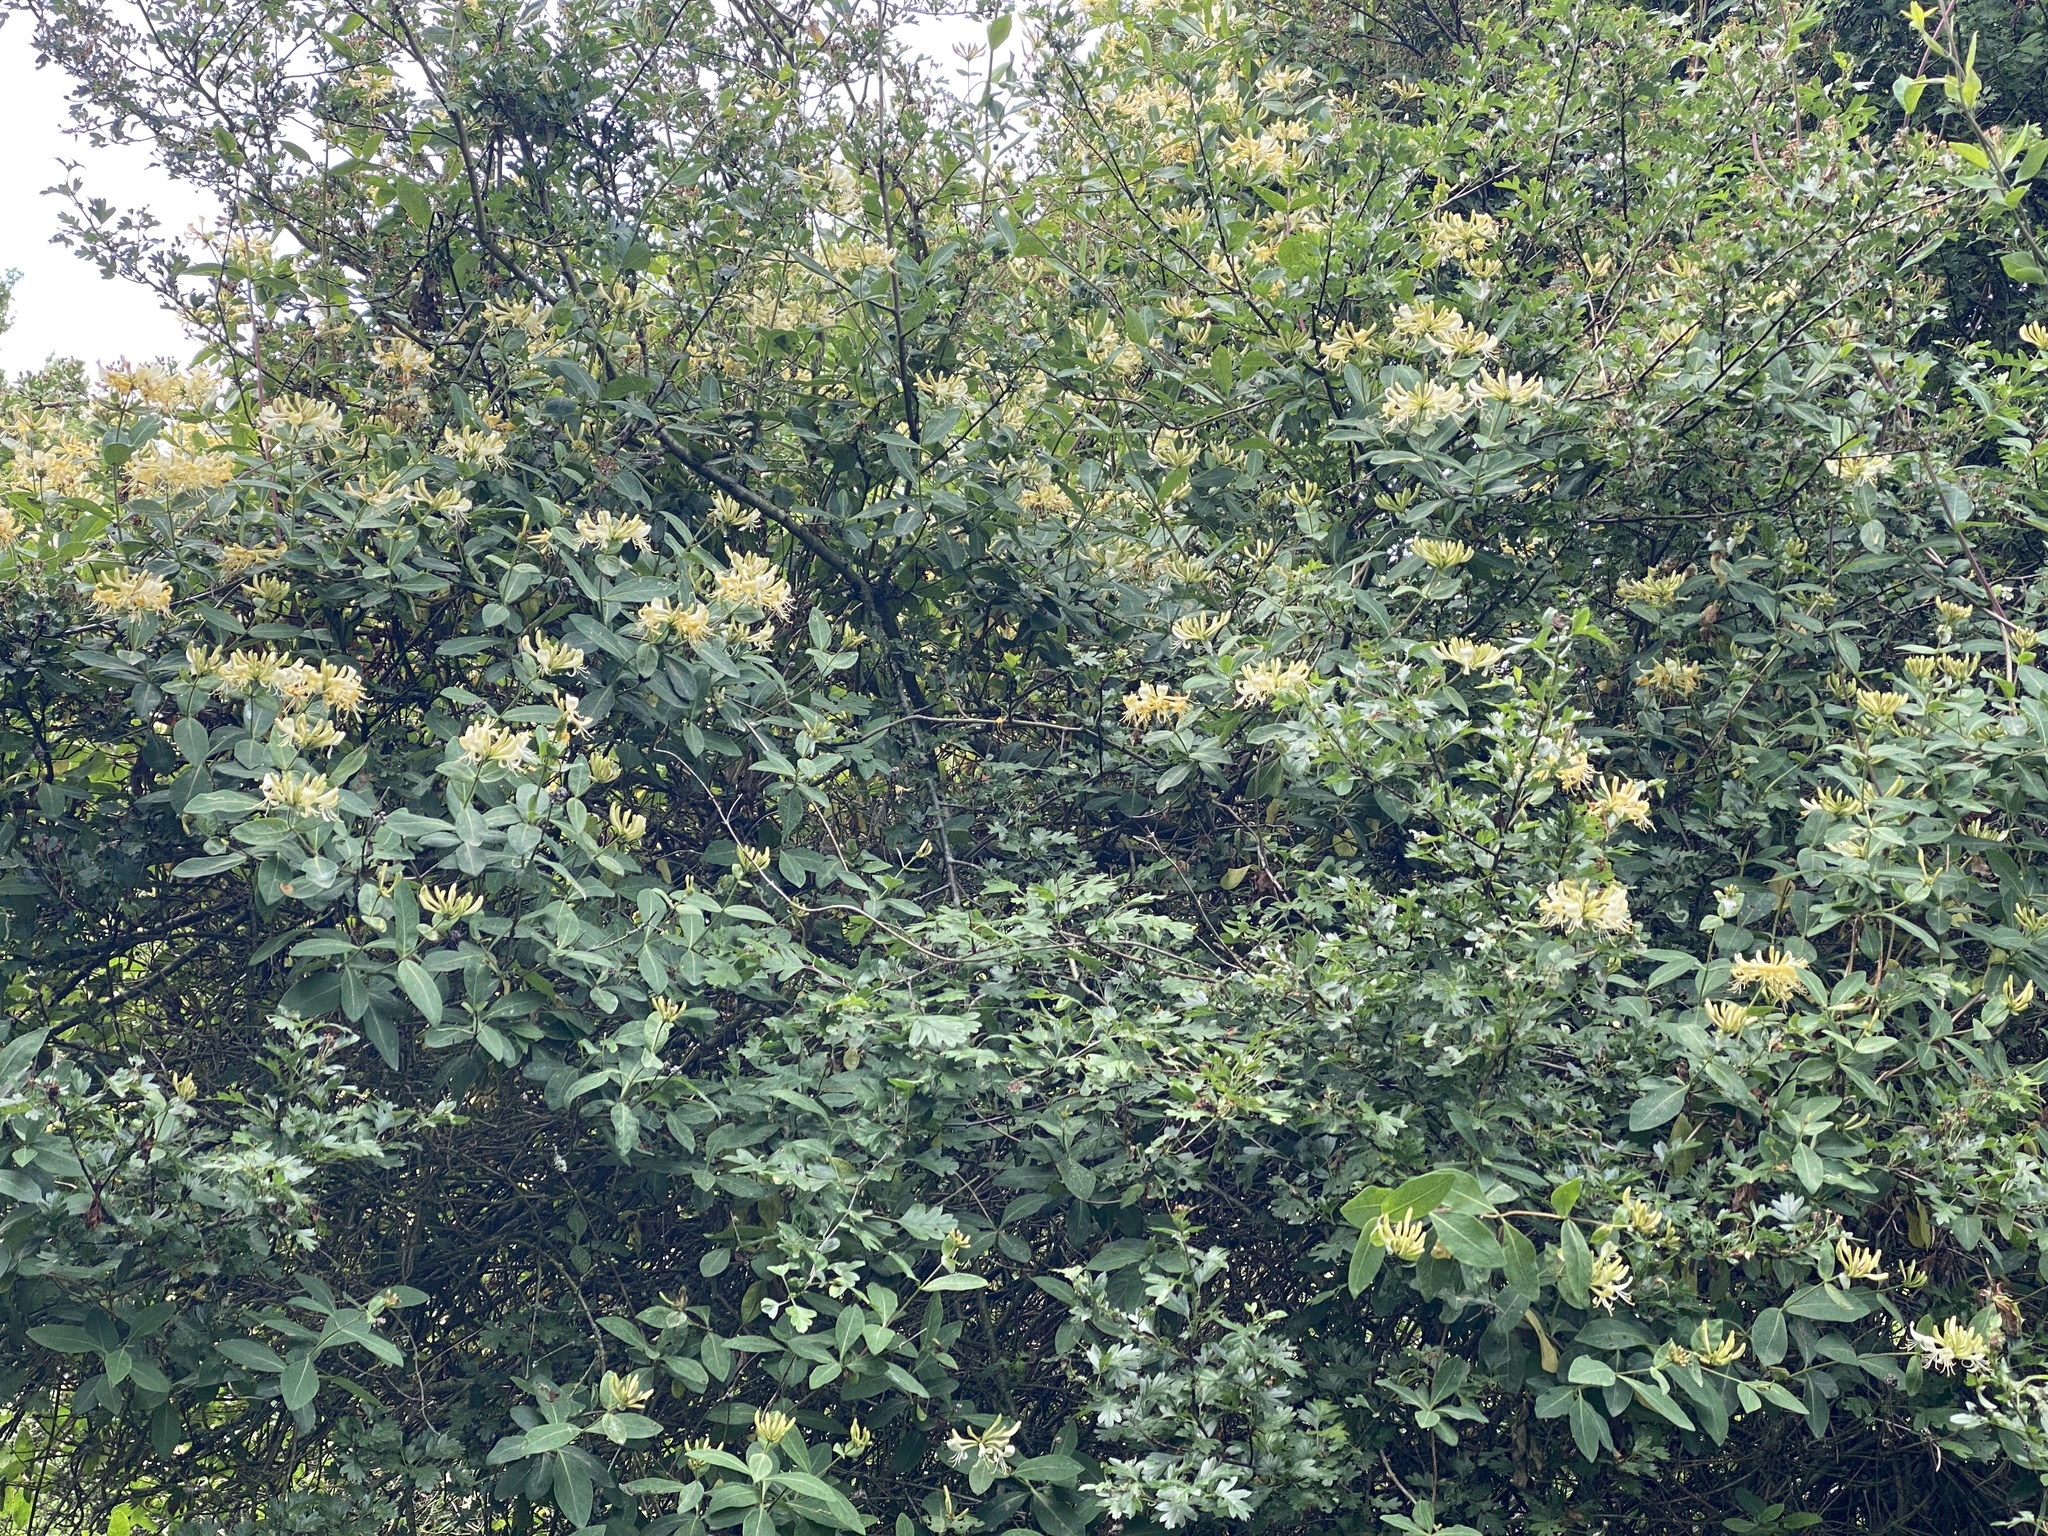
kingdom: Plantae
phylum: Tracheophyta
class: Magnoliopsida
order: Dipsacales
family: Caprifoliaceae
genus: Lonicera
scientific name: Lonicera periclymenum
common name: European honeysuckle
